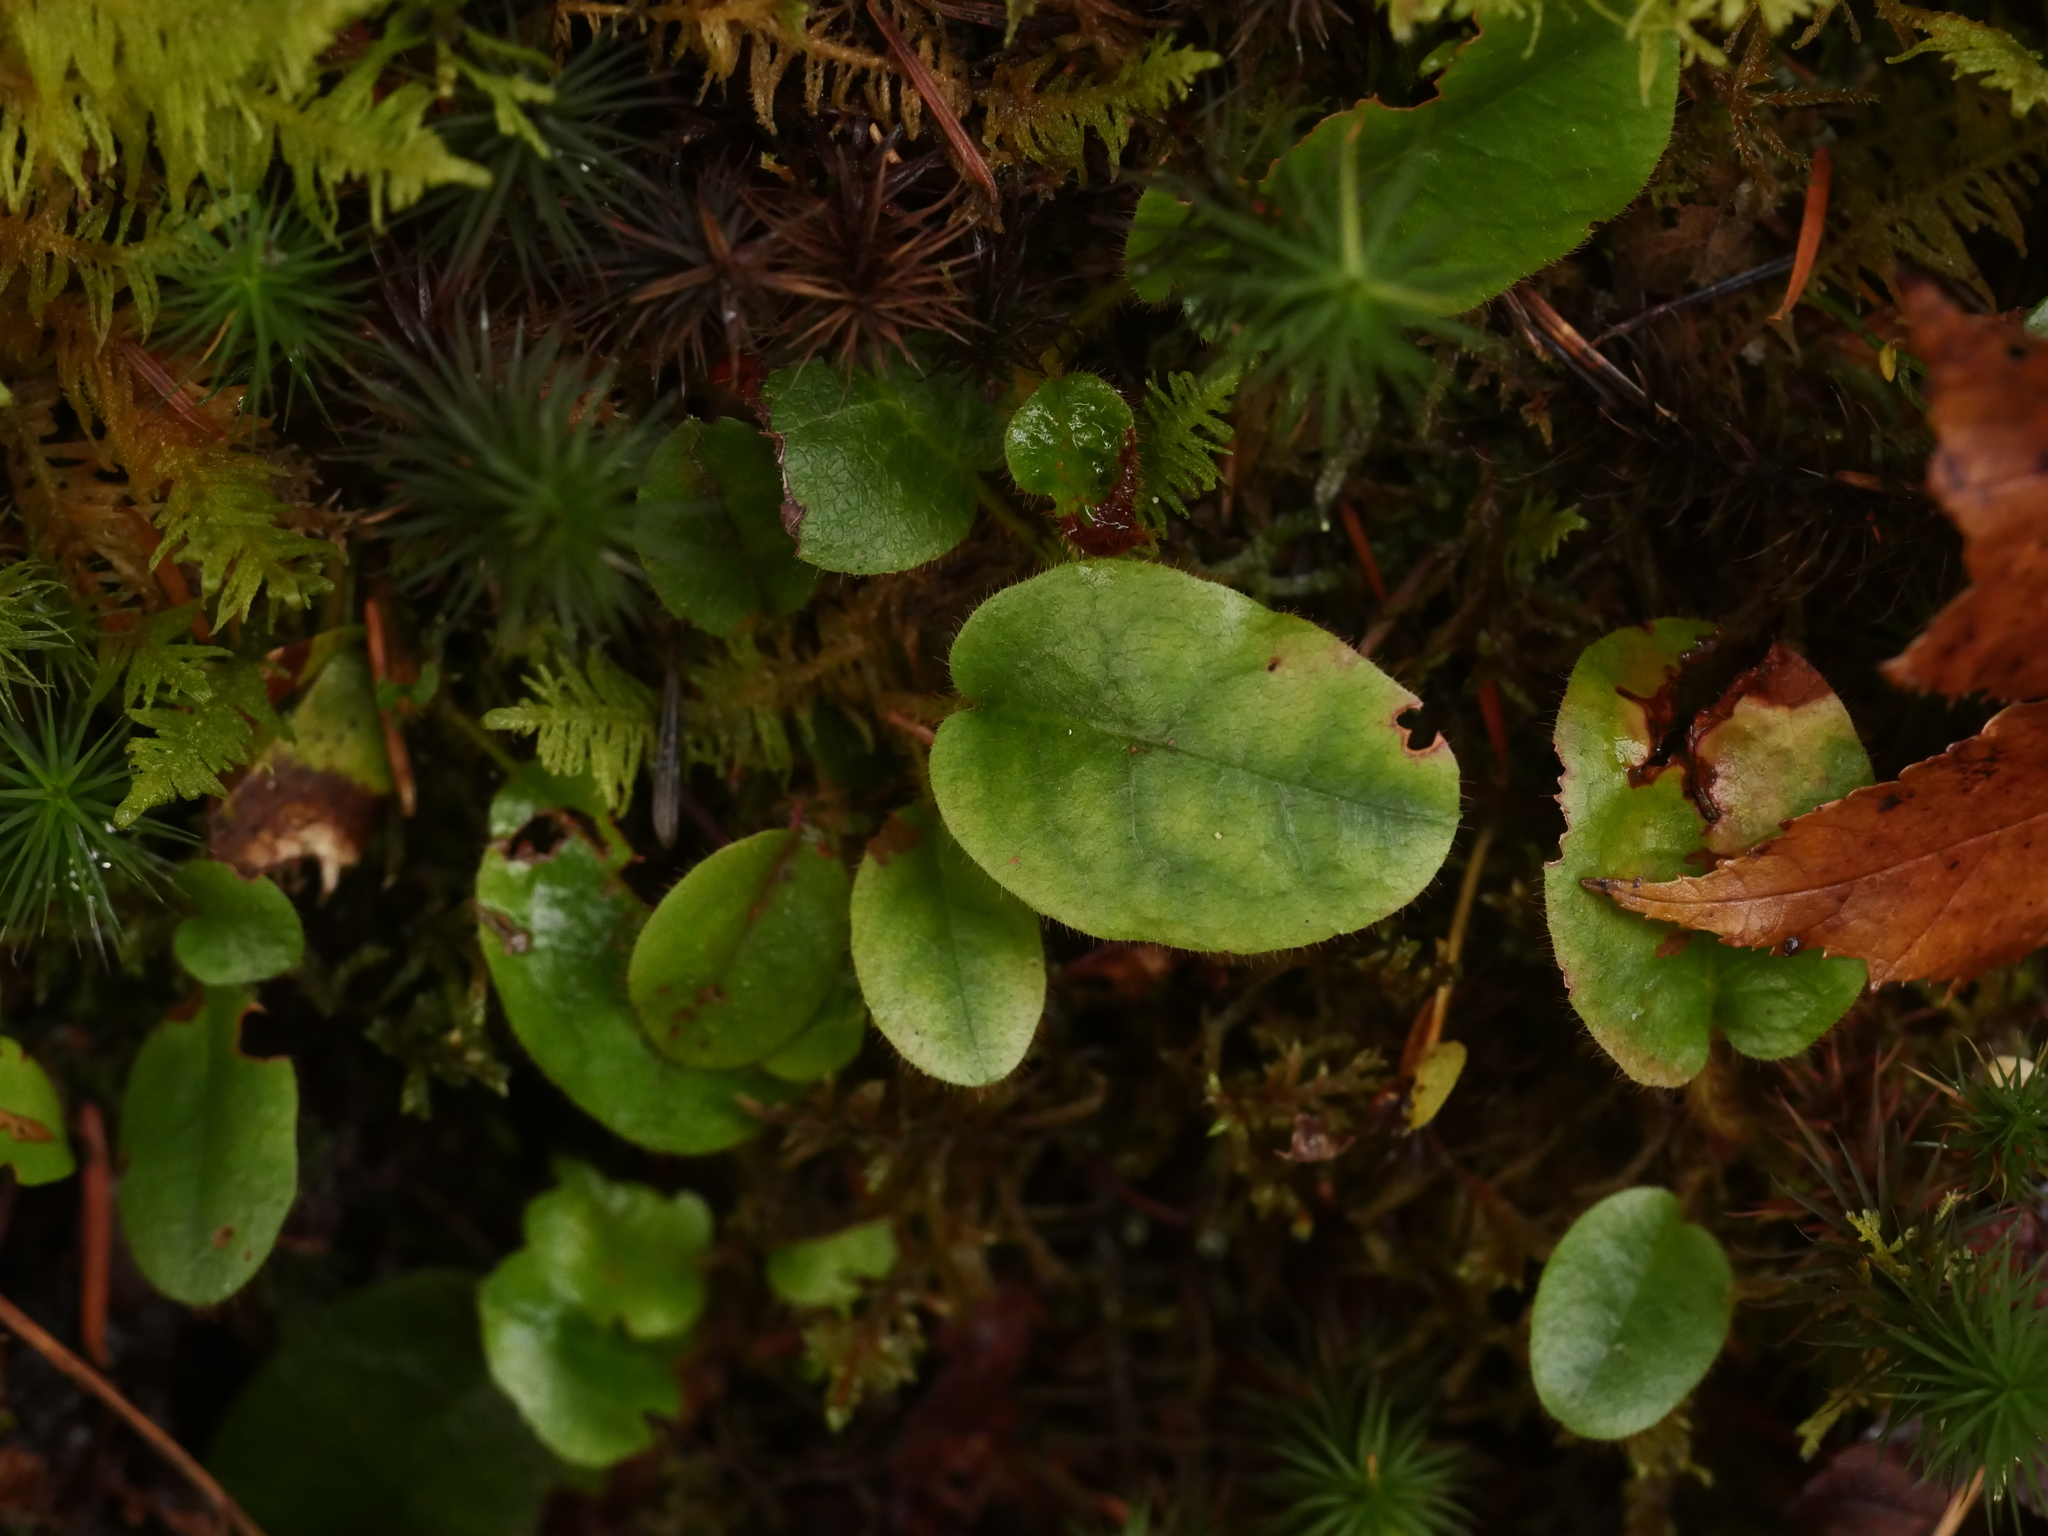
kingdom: Plantae
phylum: Tracheophyta
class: Magnoliopsida
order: Ericales
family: Ericaceae
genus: Epigaea
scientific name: Epigaea repens
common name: Gravelroot
